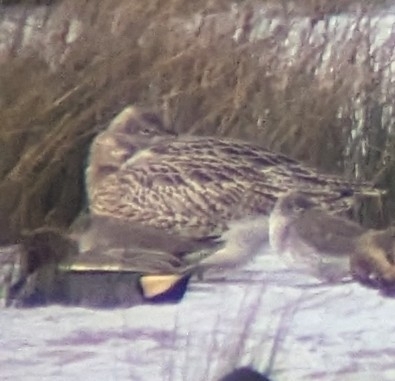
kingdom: Animalia
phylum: Chordata
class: Aves
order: Anseriformes
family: Anatidae
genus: Anas
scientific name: Anas crecca
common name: Eurasian teal
